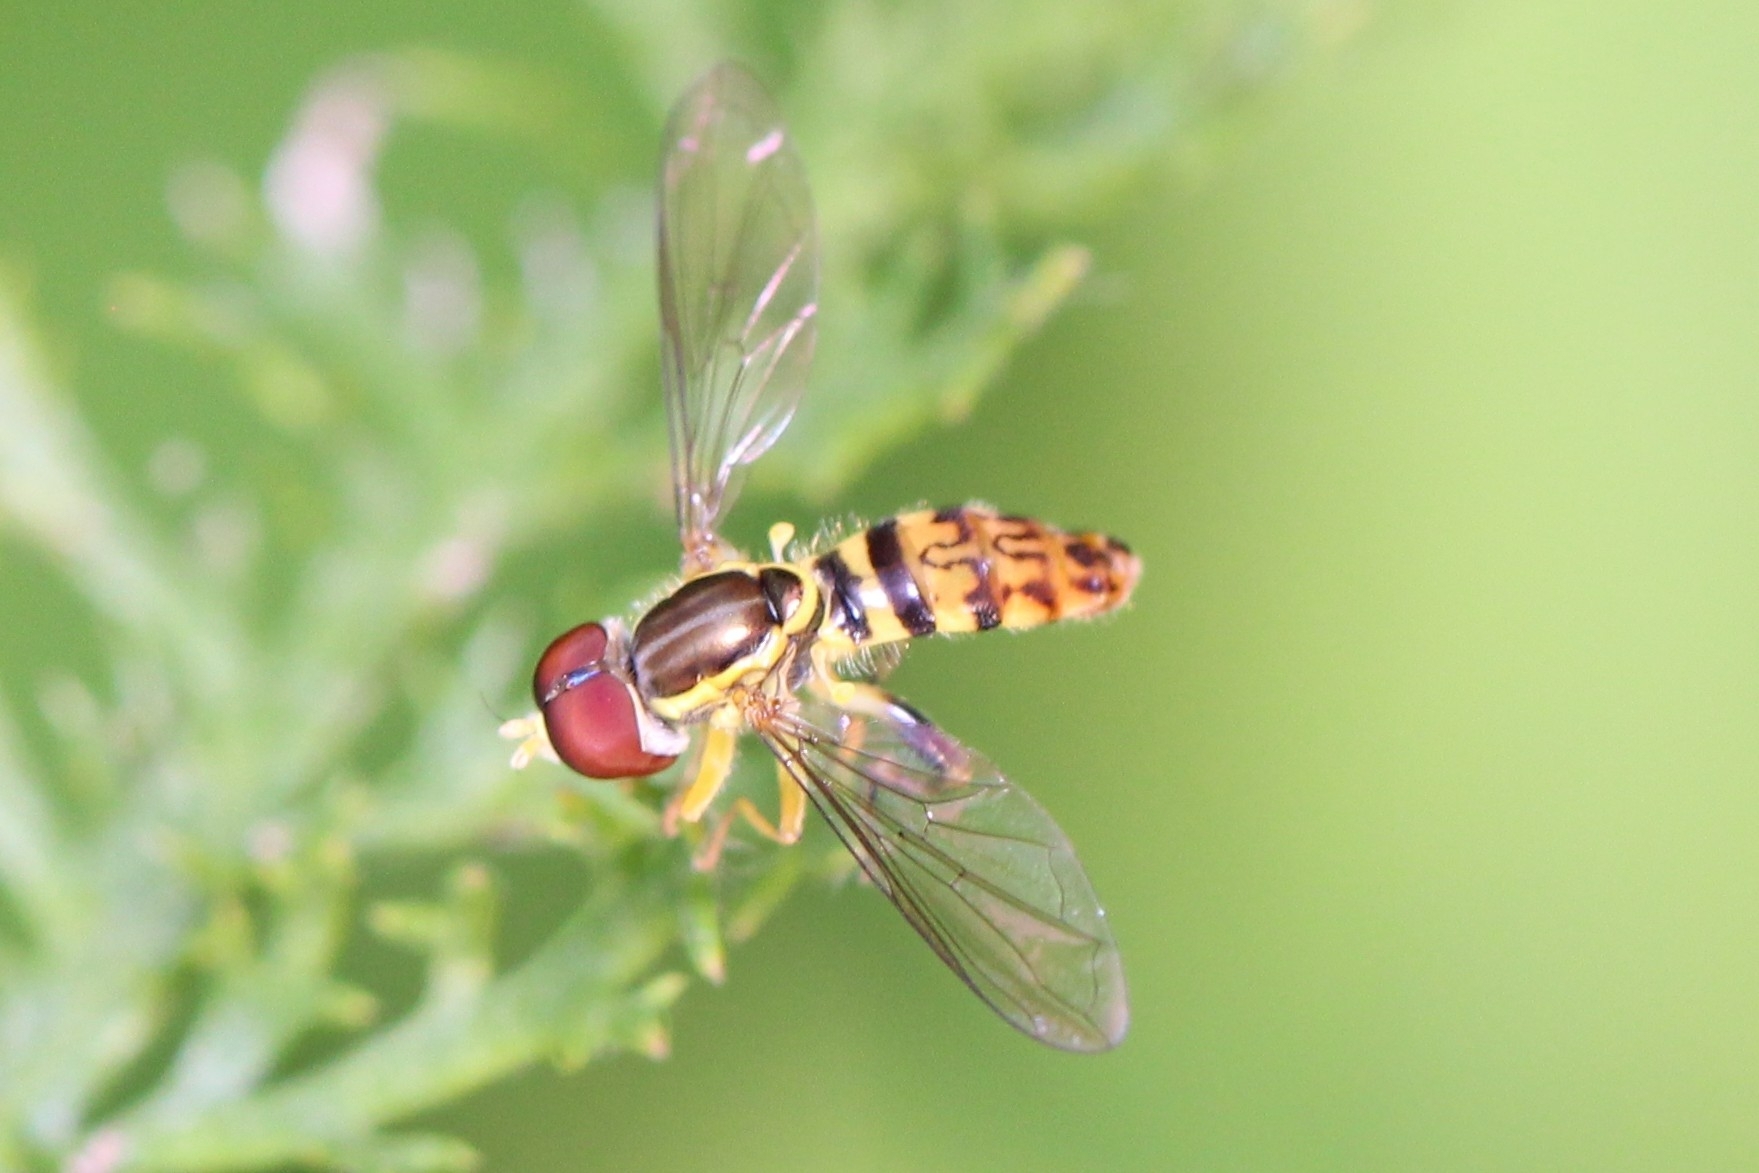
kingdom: Animalia
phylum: Arthropoda
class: Insecta
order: Diptera
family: Syrphidae
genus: Toxomerus
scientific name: Toxomerus geminatus
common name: Eastern calligrapher
